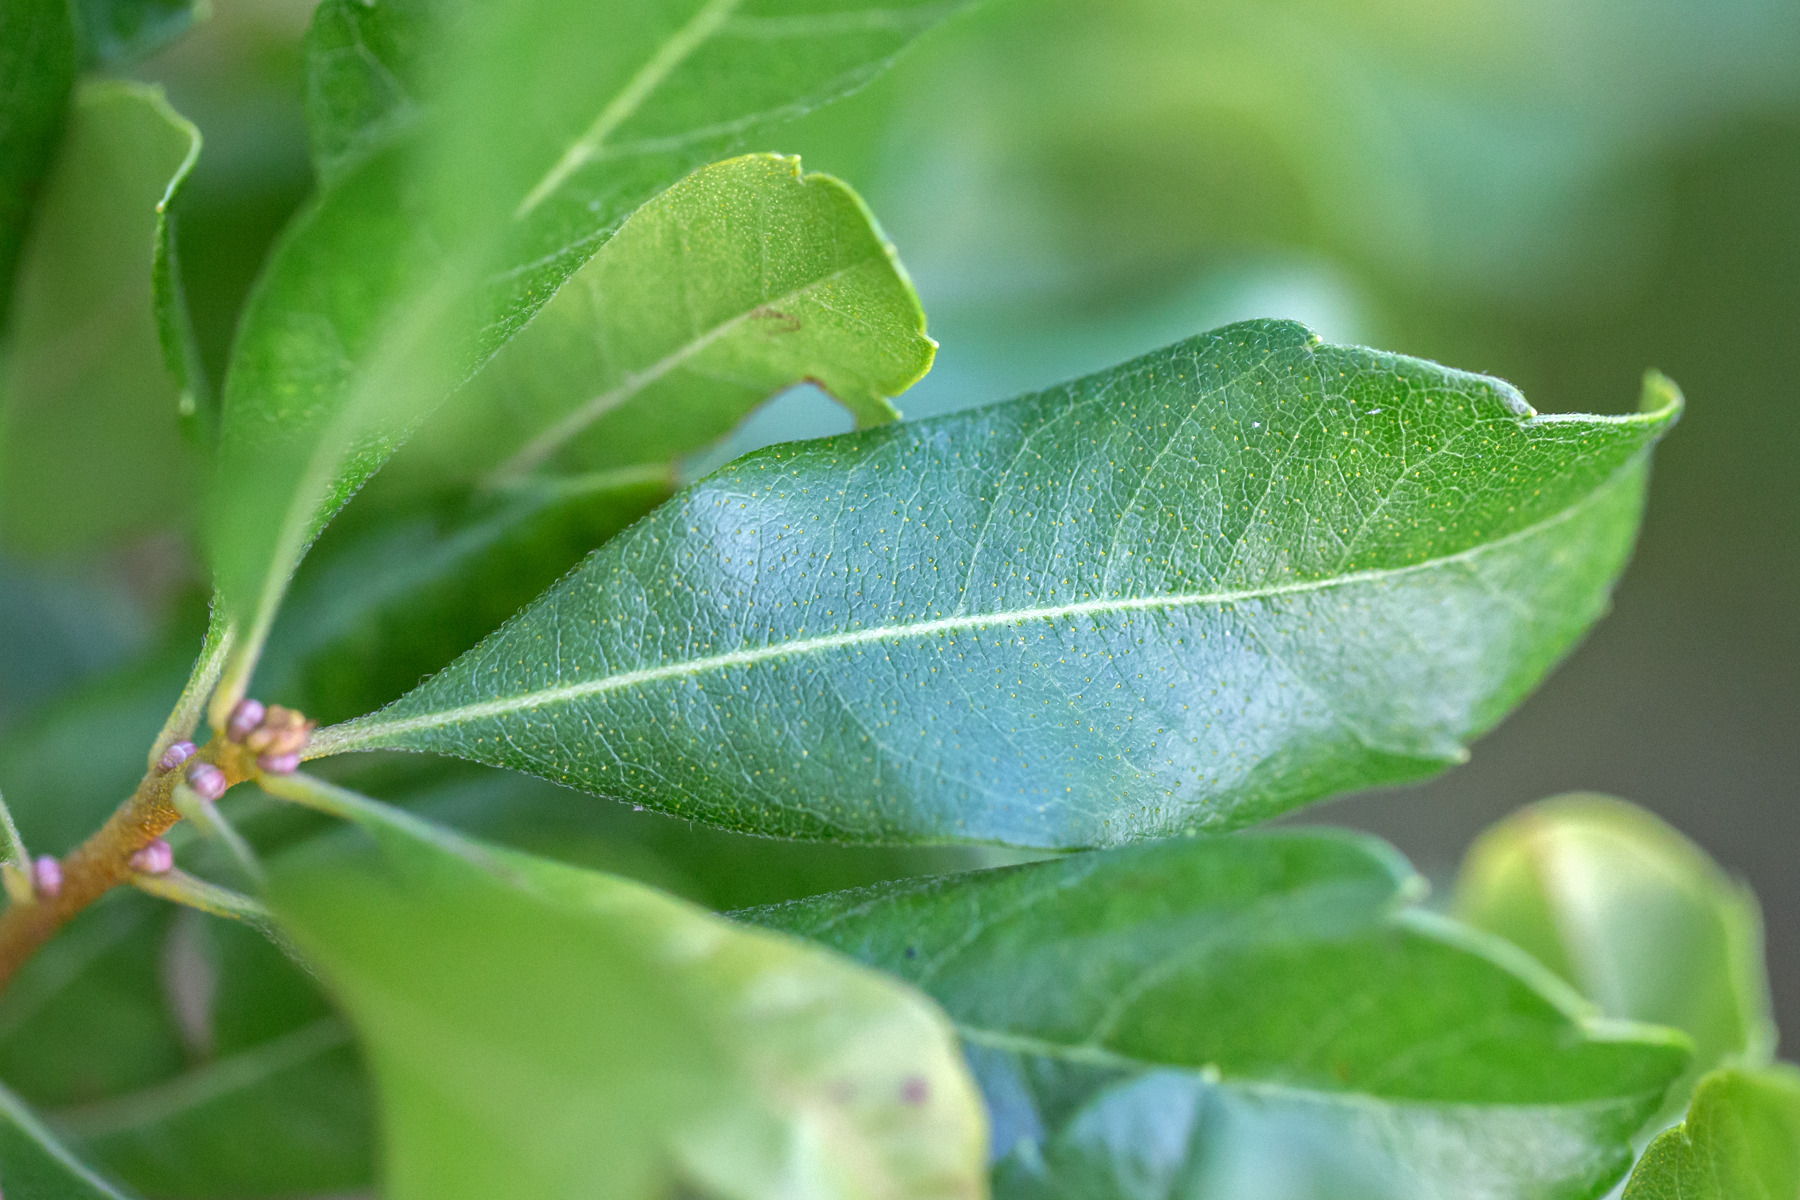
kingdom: Plantae
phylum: Tracheophyta
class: Magnoliopsida
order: Fagales
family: Myricaceae
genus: Morella
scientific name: Morella pensylvanica
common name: Northern bayberry
